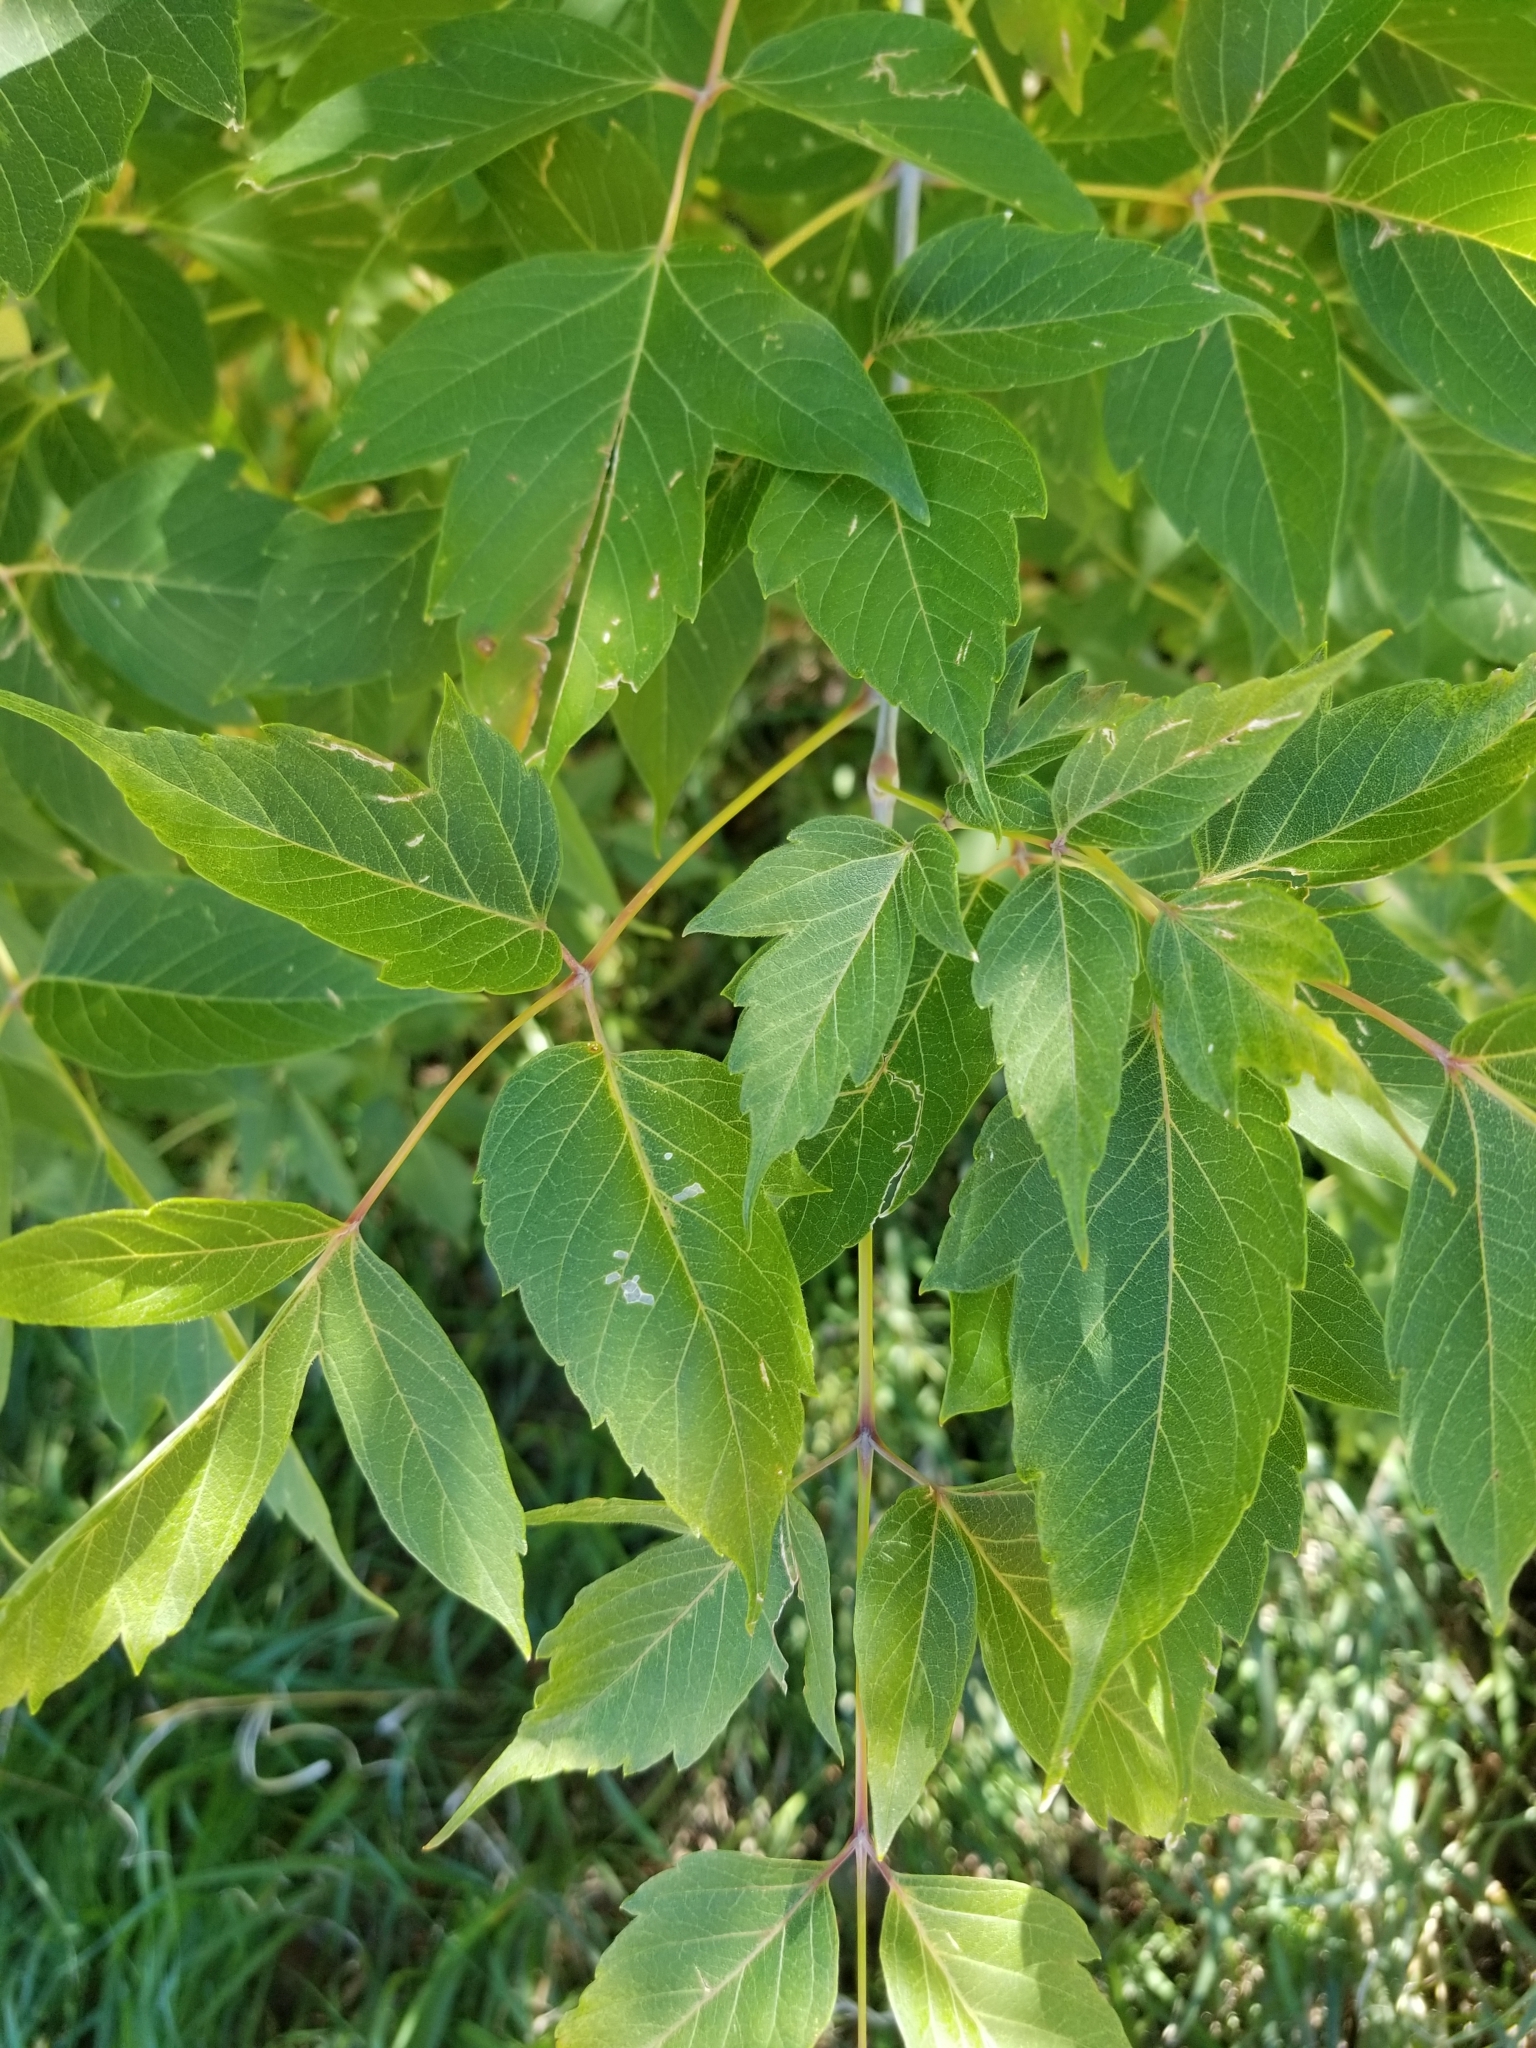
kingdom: Plantae
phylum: Tracheophyta
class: Magnoliopsida
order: Sapindales
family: Sapindaceae
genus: Acer
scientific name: Acer negundo
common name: Ashleaf maple
